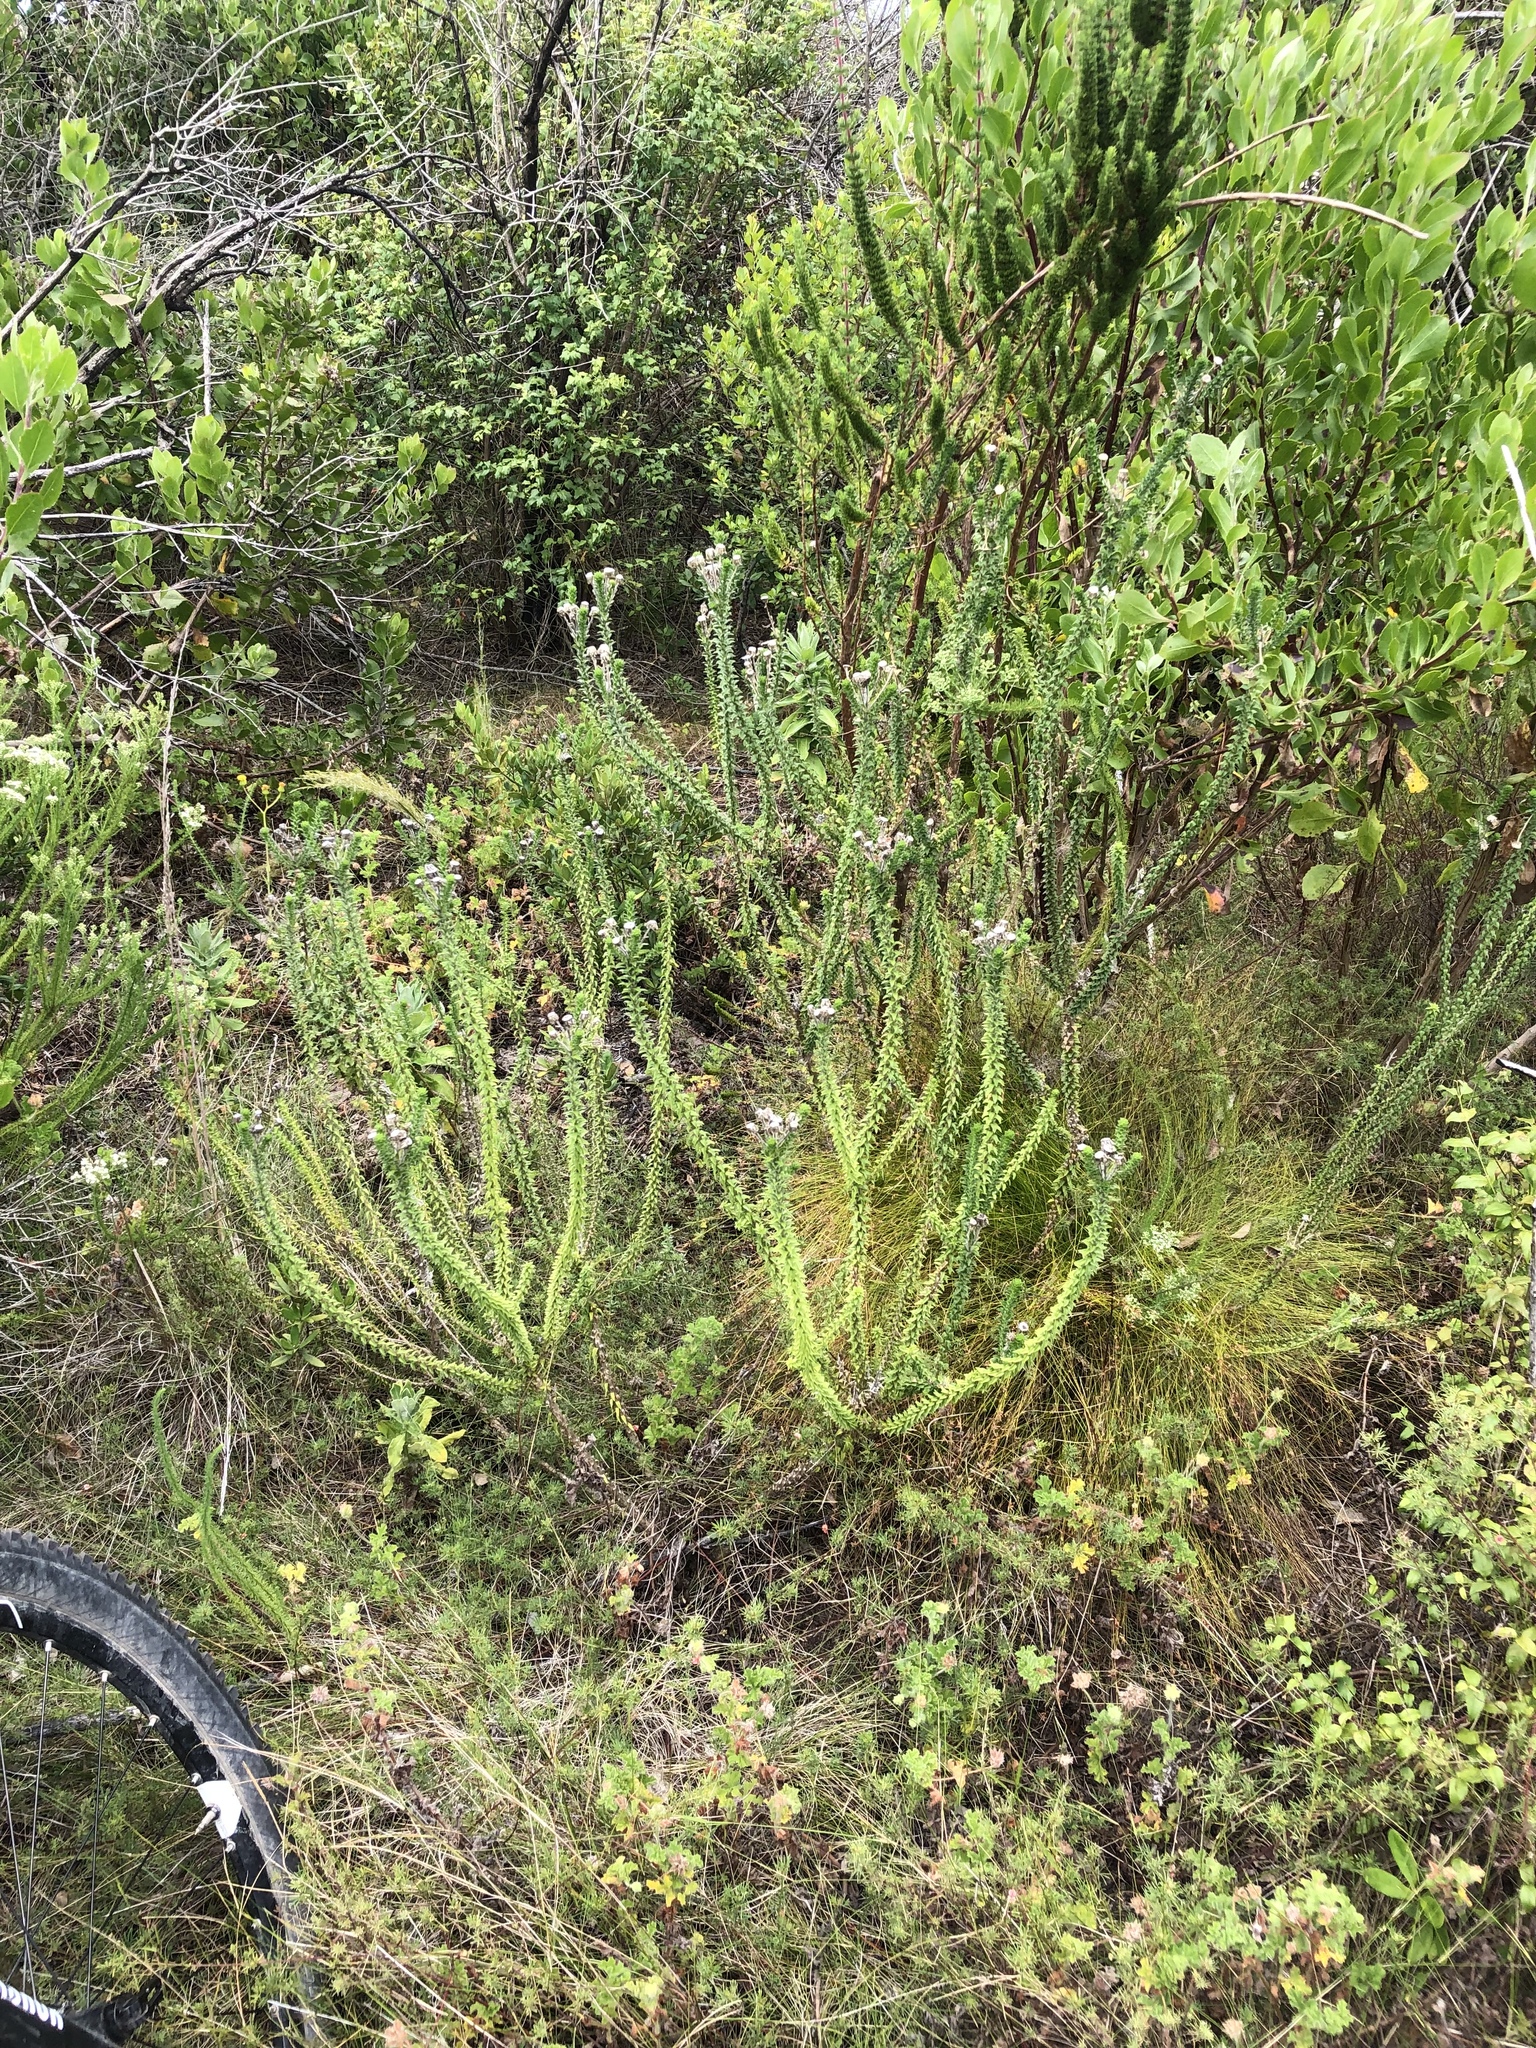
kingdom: Plantae
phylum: Tracheophyta
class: Magnoliopsida
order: Asterales
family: Asteraceae
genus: Felicia
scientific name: Felicia echinata
